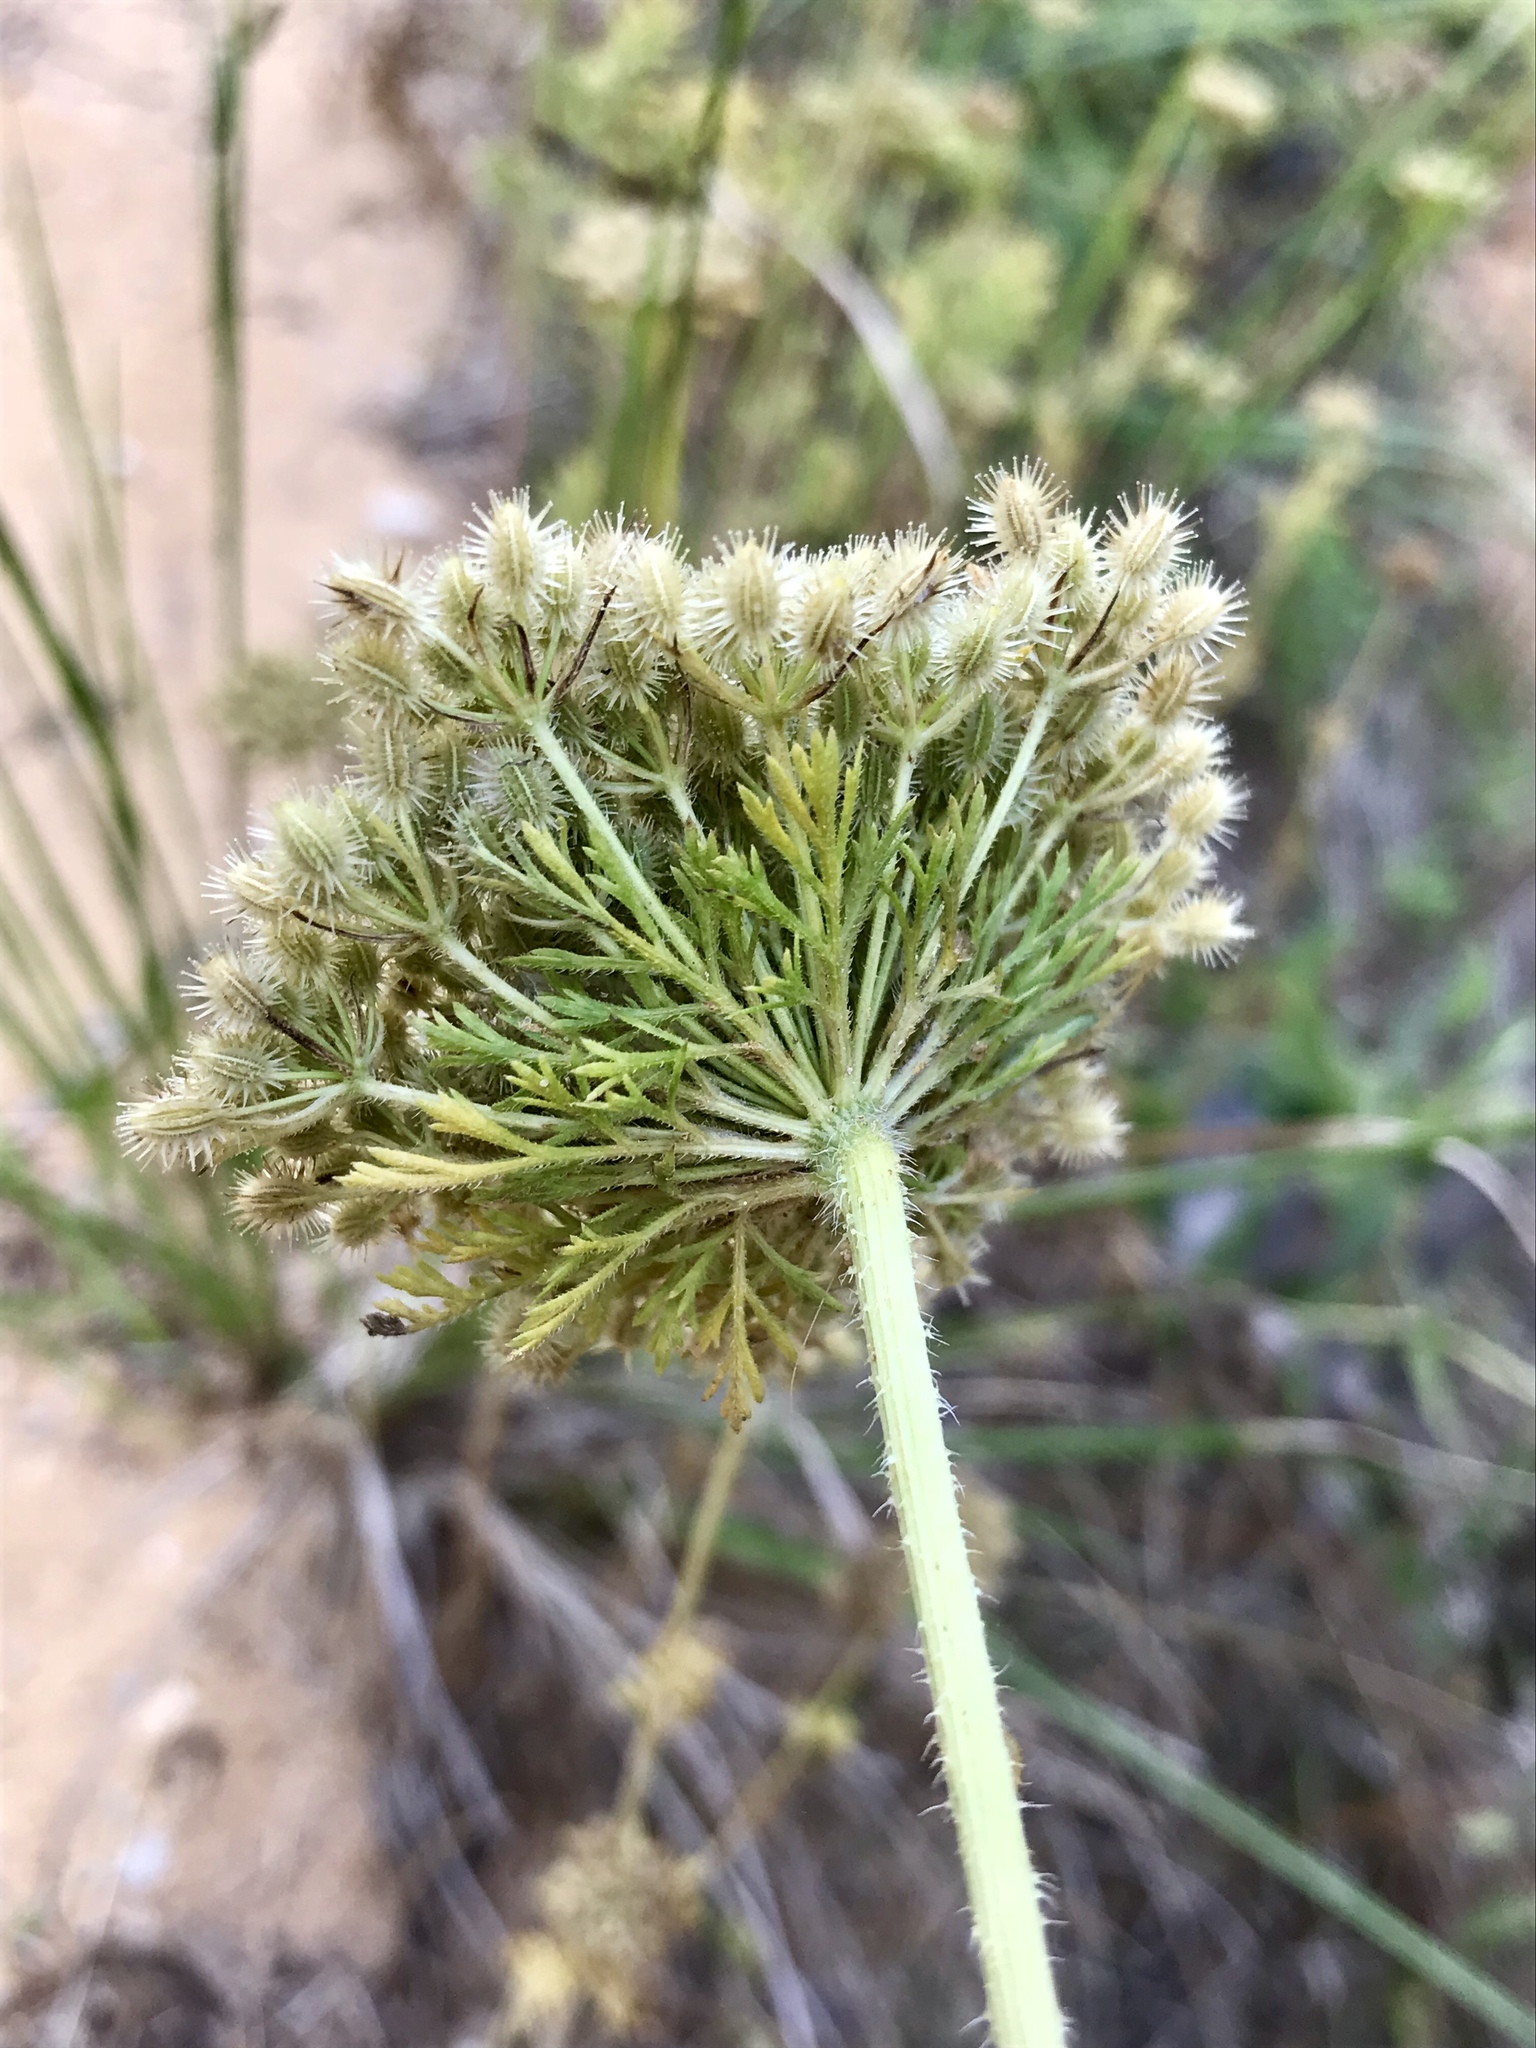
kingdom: Plantae
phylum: Tracheophyta
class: Magnoliopsida
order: Apiales
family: Apiaceae
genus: Daucus
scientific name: Daucus carota
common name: Wild carrot
